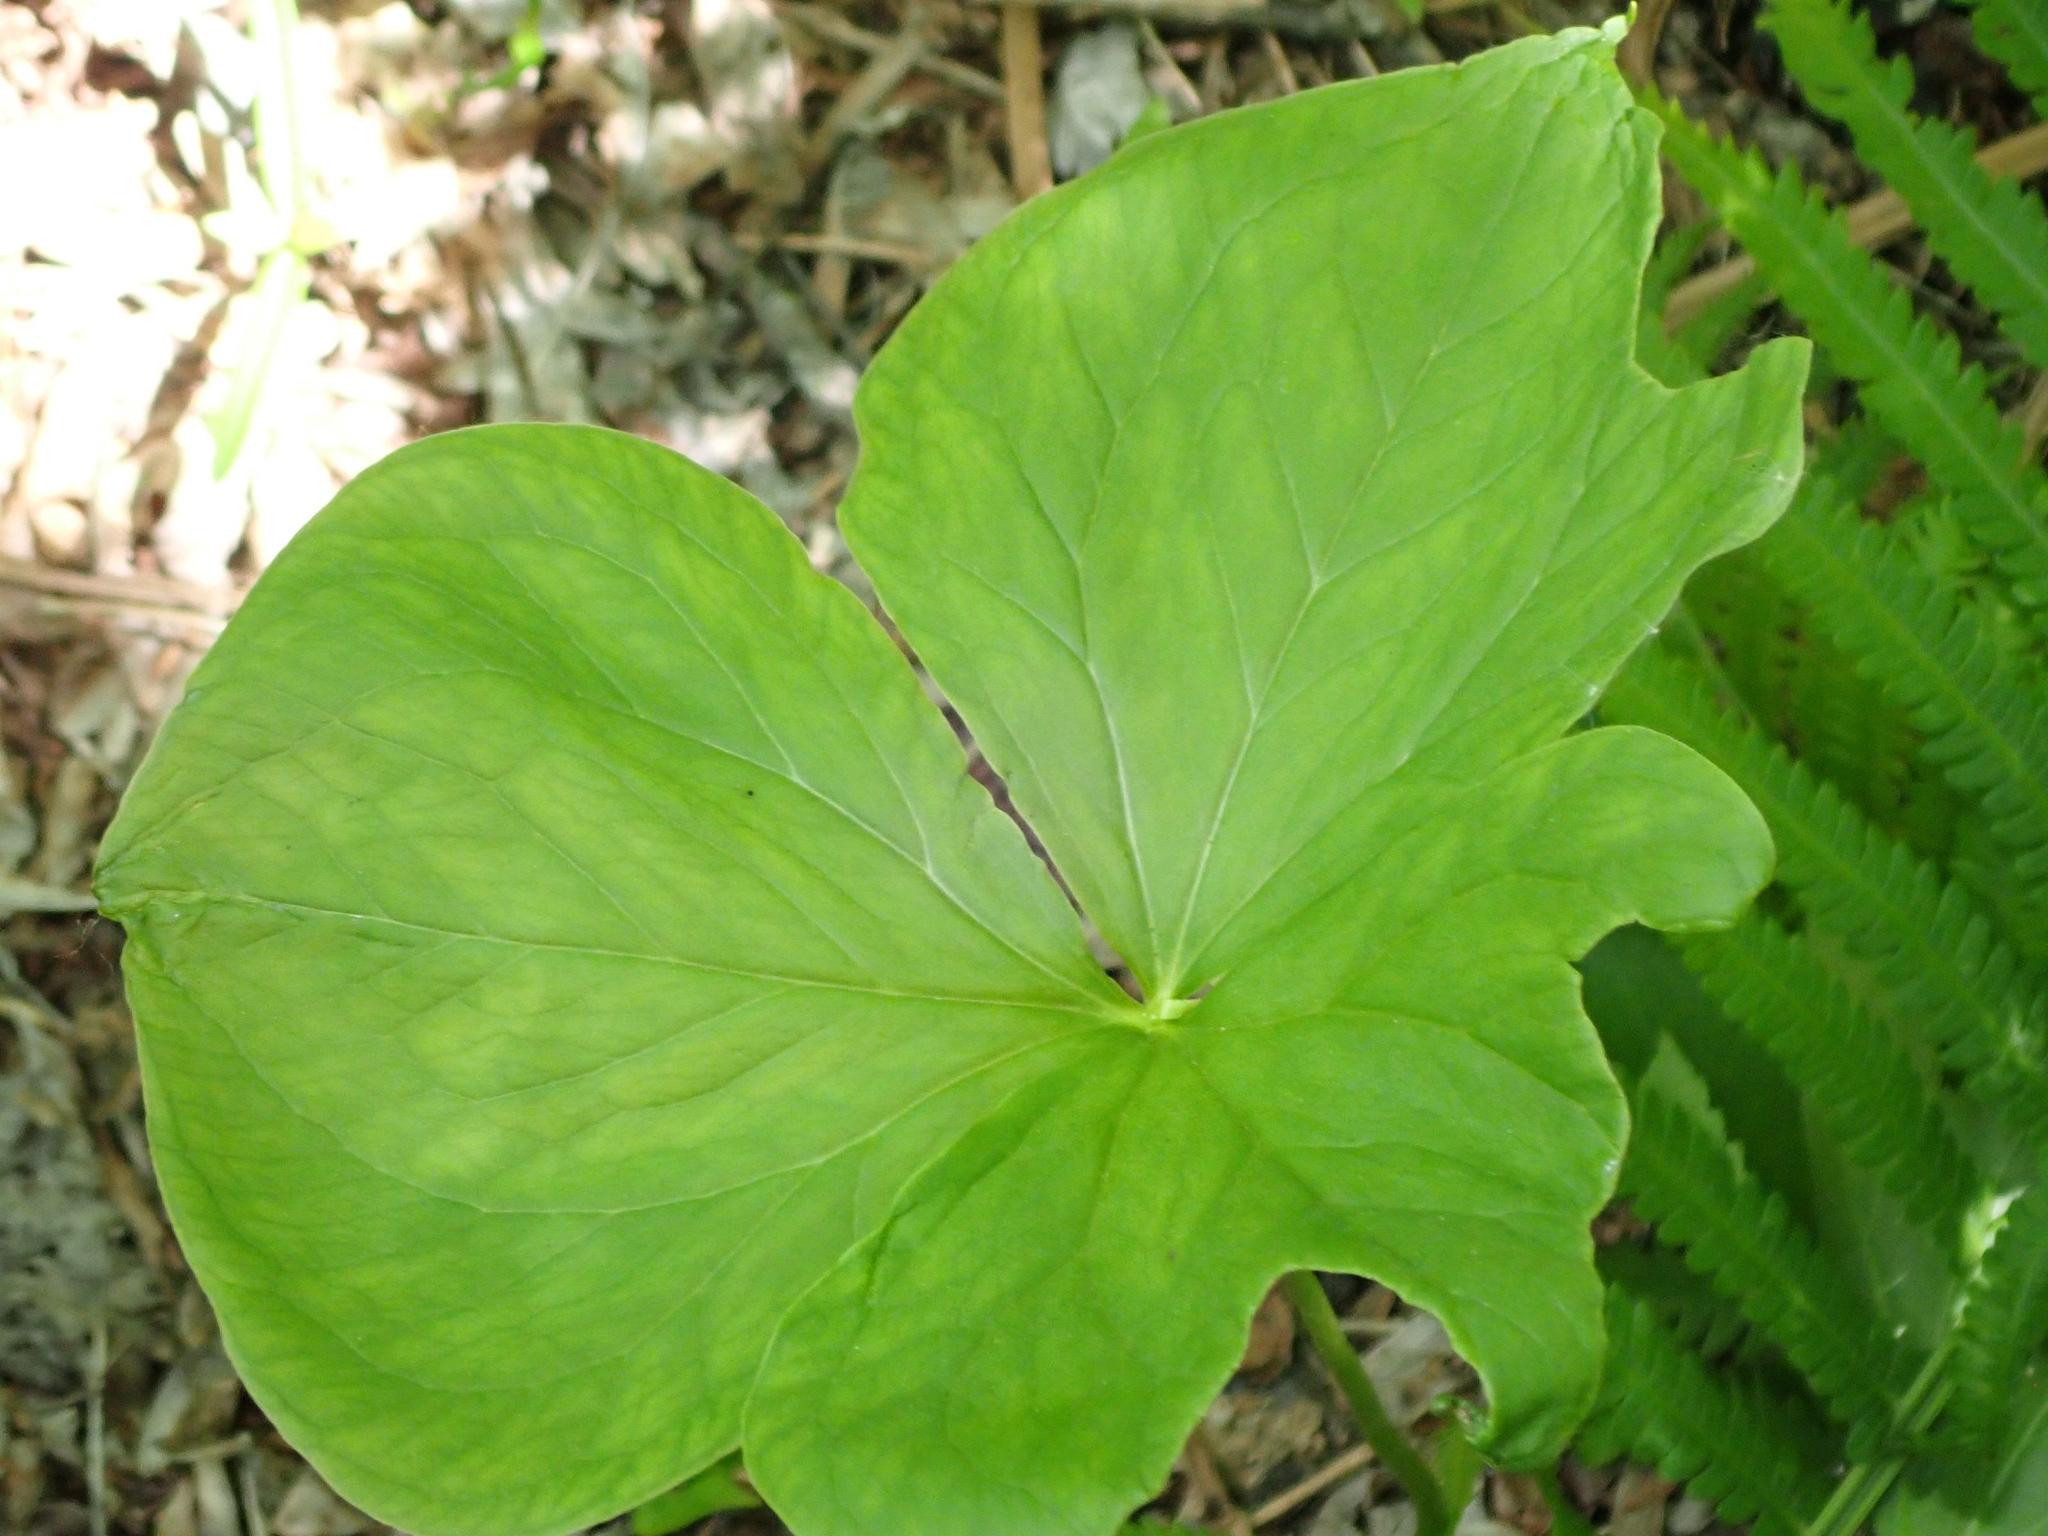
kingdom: Plantae
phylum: Tracheophyta
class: Liliopsida
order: Liliales
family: Melanthiaceae
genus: Trillium
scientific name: Trillium cernuum
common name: Nodding trillium
